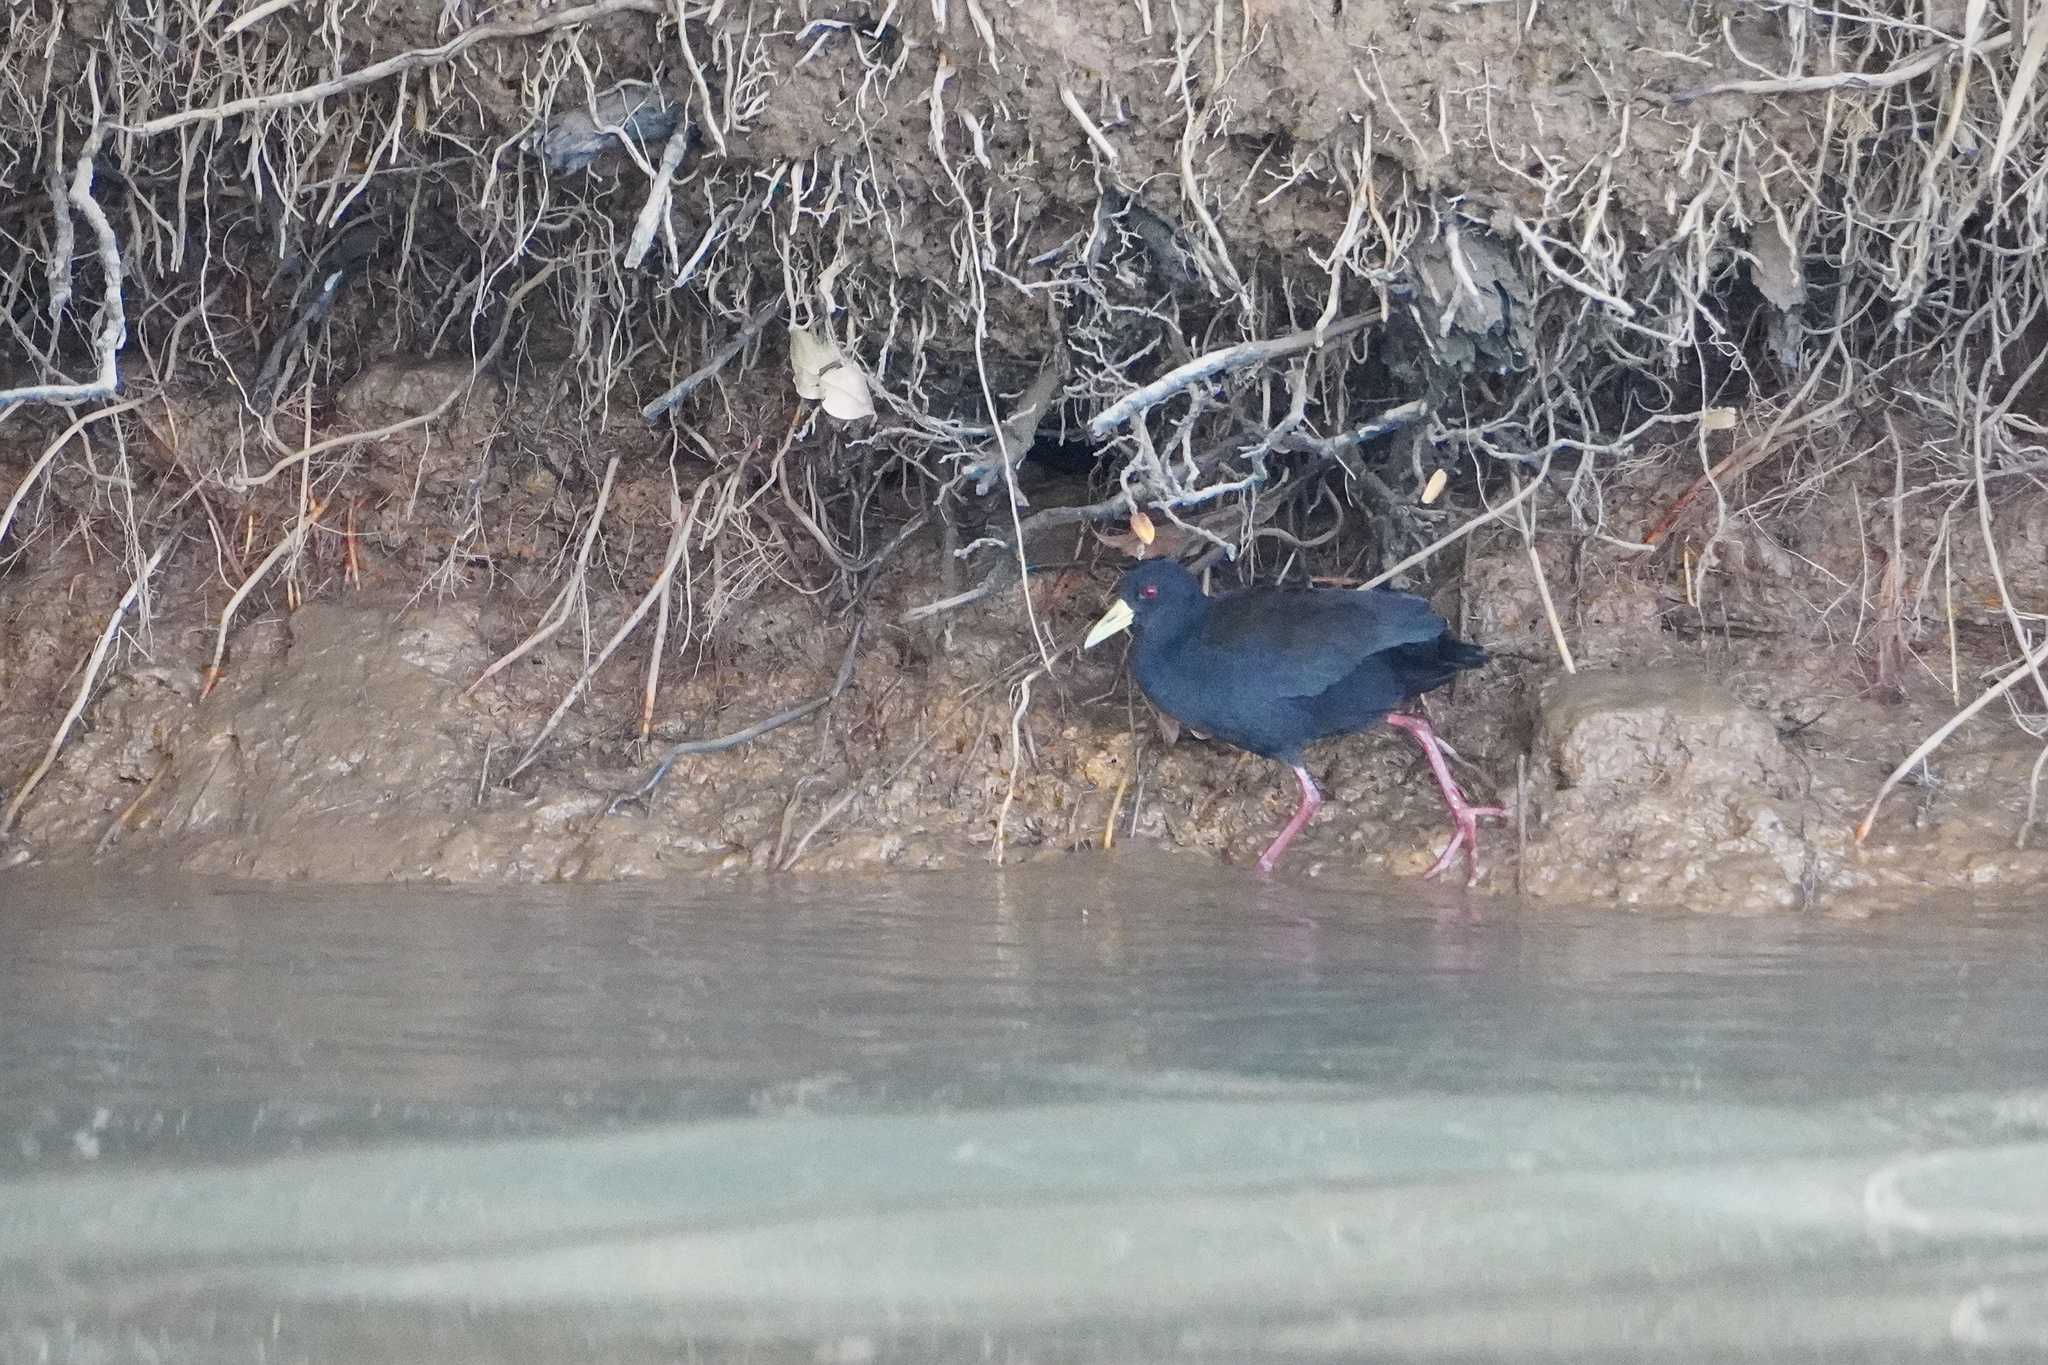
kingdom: Animalia
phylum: Chordata
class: Aves
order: Gruiformes
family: Rallidae
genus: Amaurornis
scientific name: Amaurornis flavirostra
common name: Black crake
